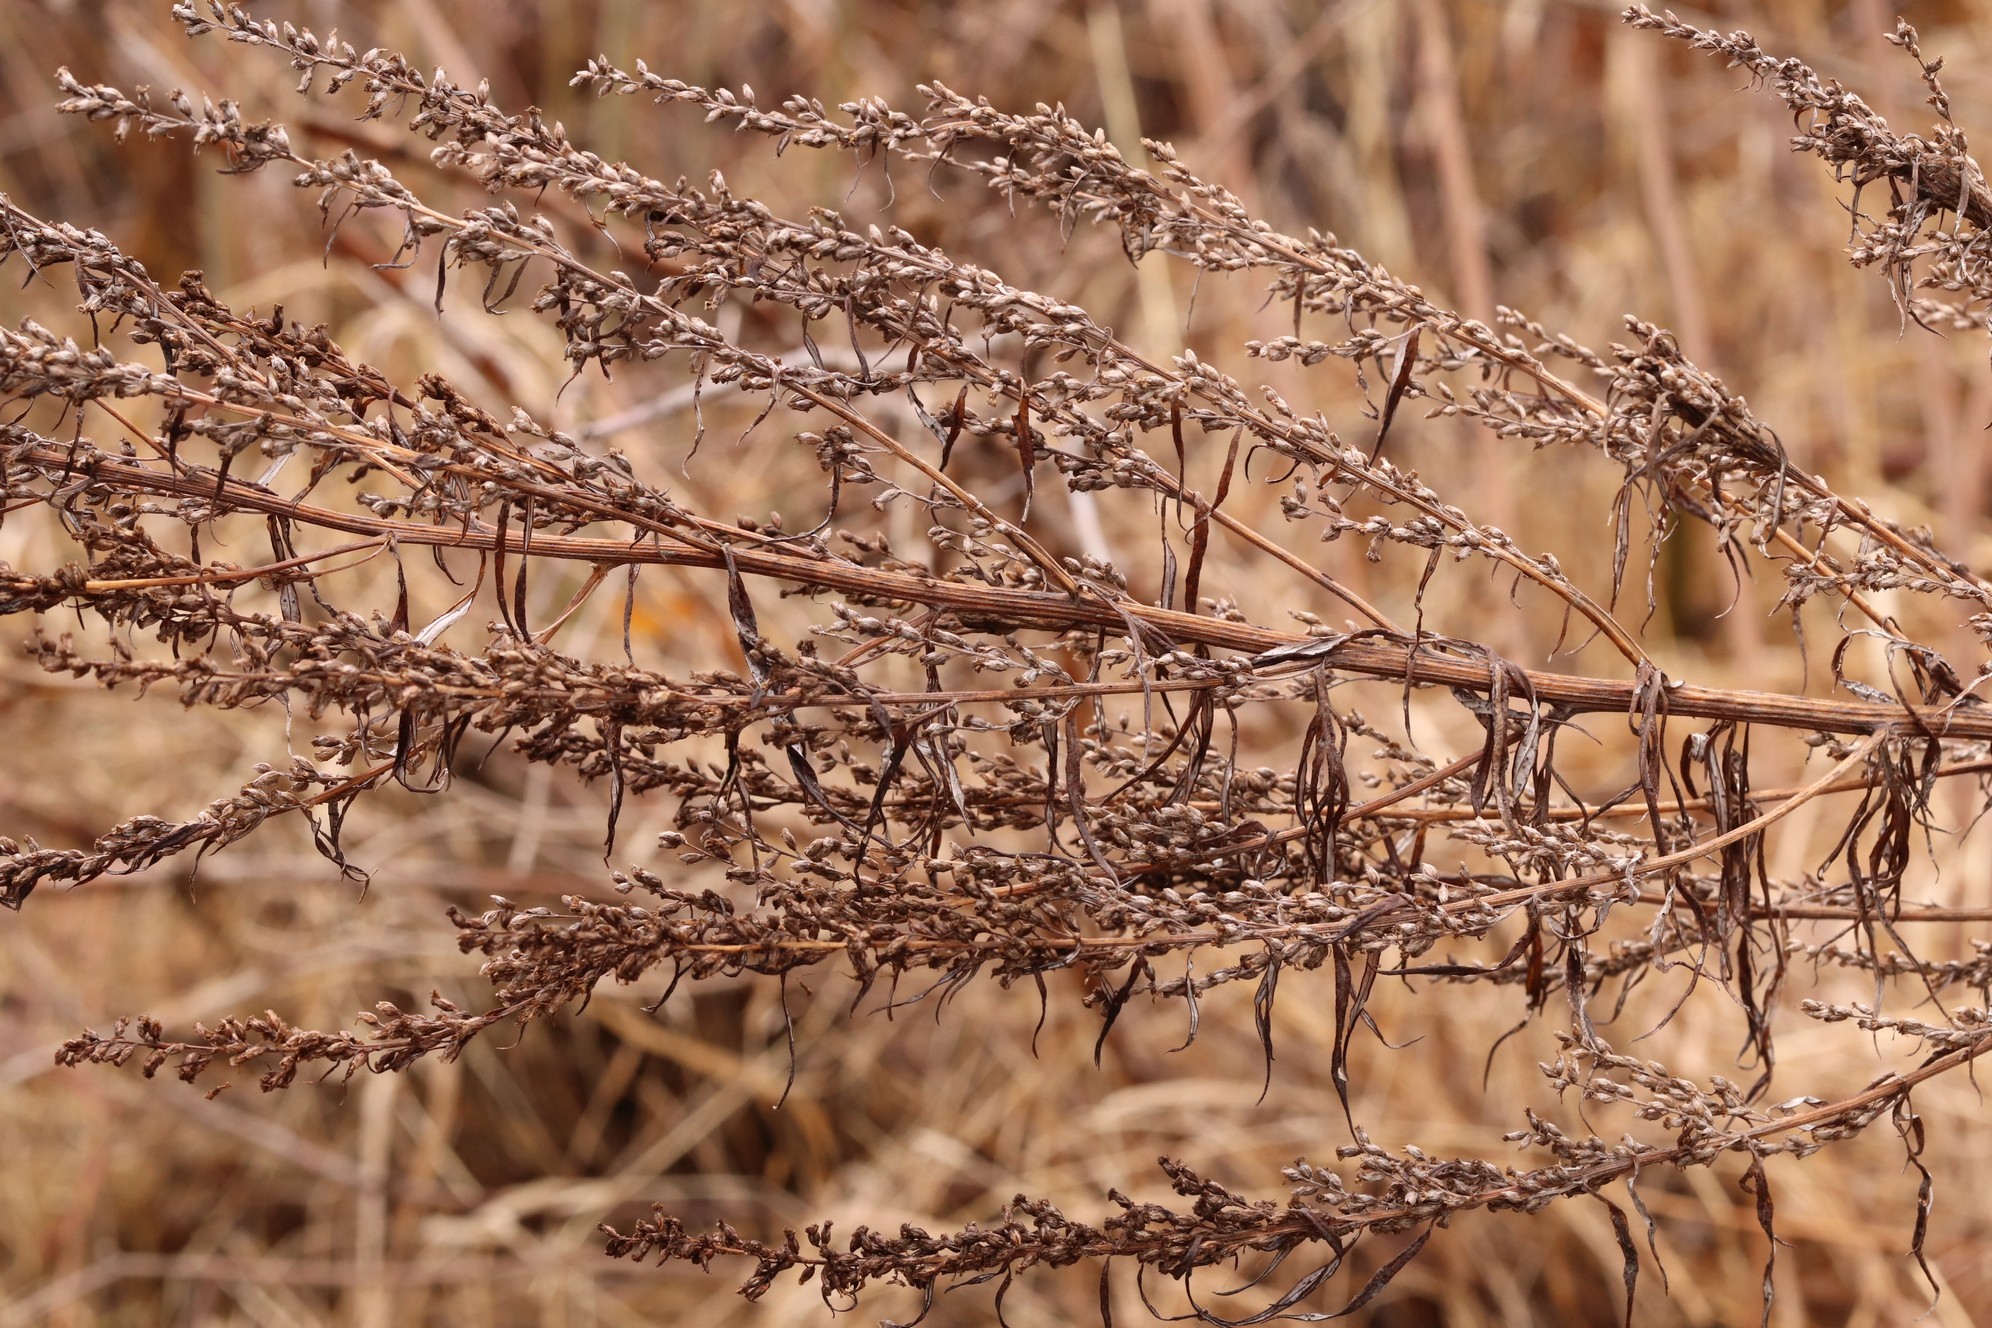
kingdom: Plantae
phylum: Tracheophyta
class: Magnoliopsida
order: Asterales
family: Asteraceae
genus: Artemisia
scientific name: Artemisia vulgaris
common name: Mugwort
